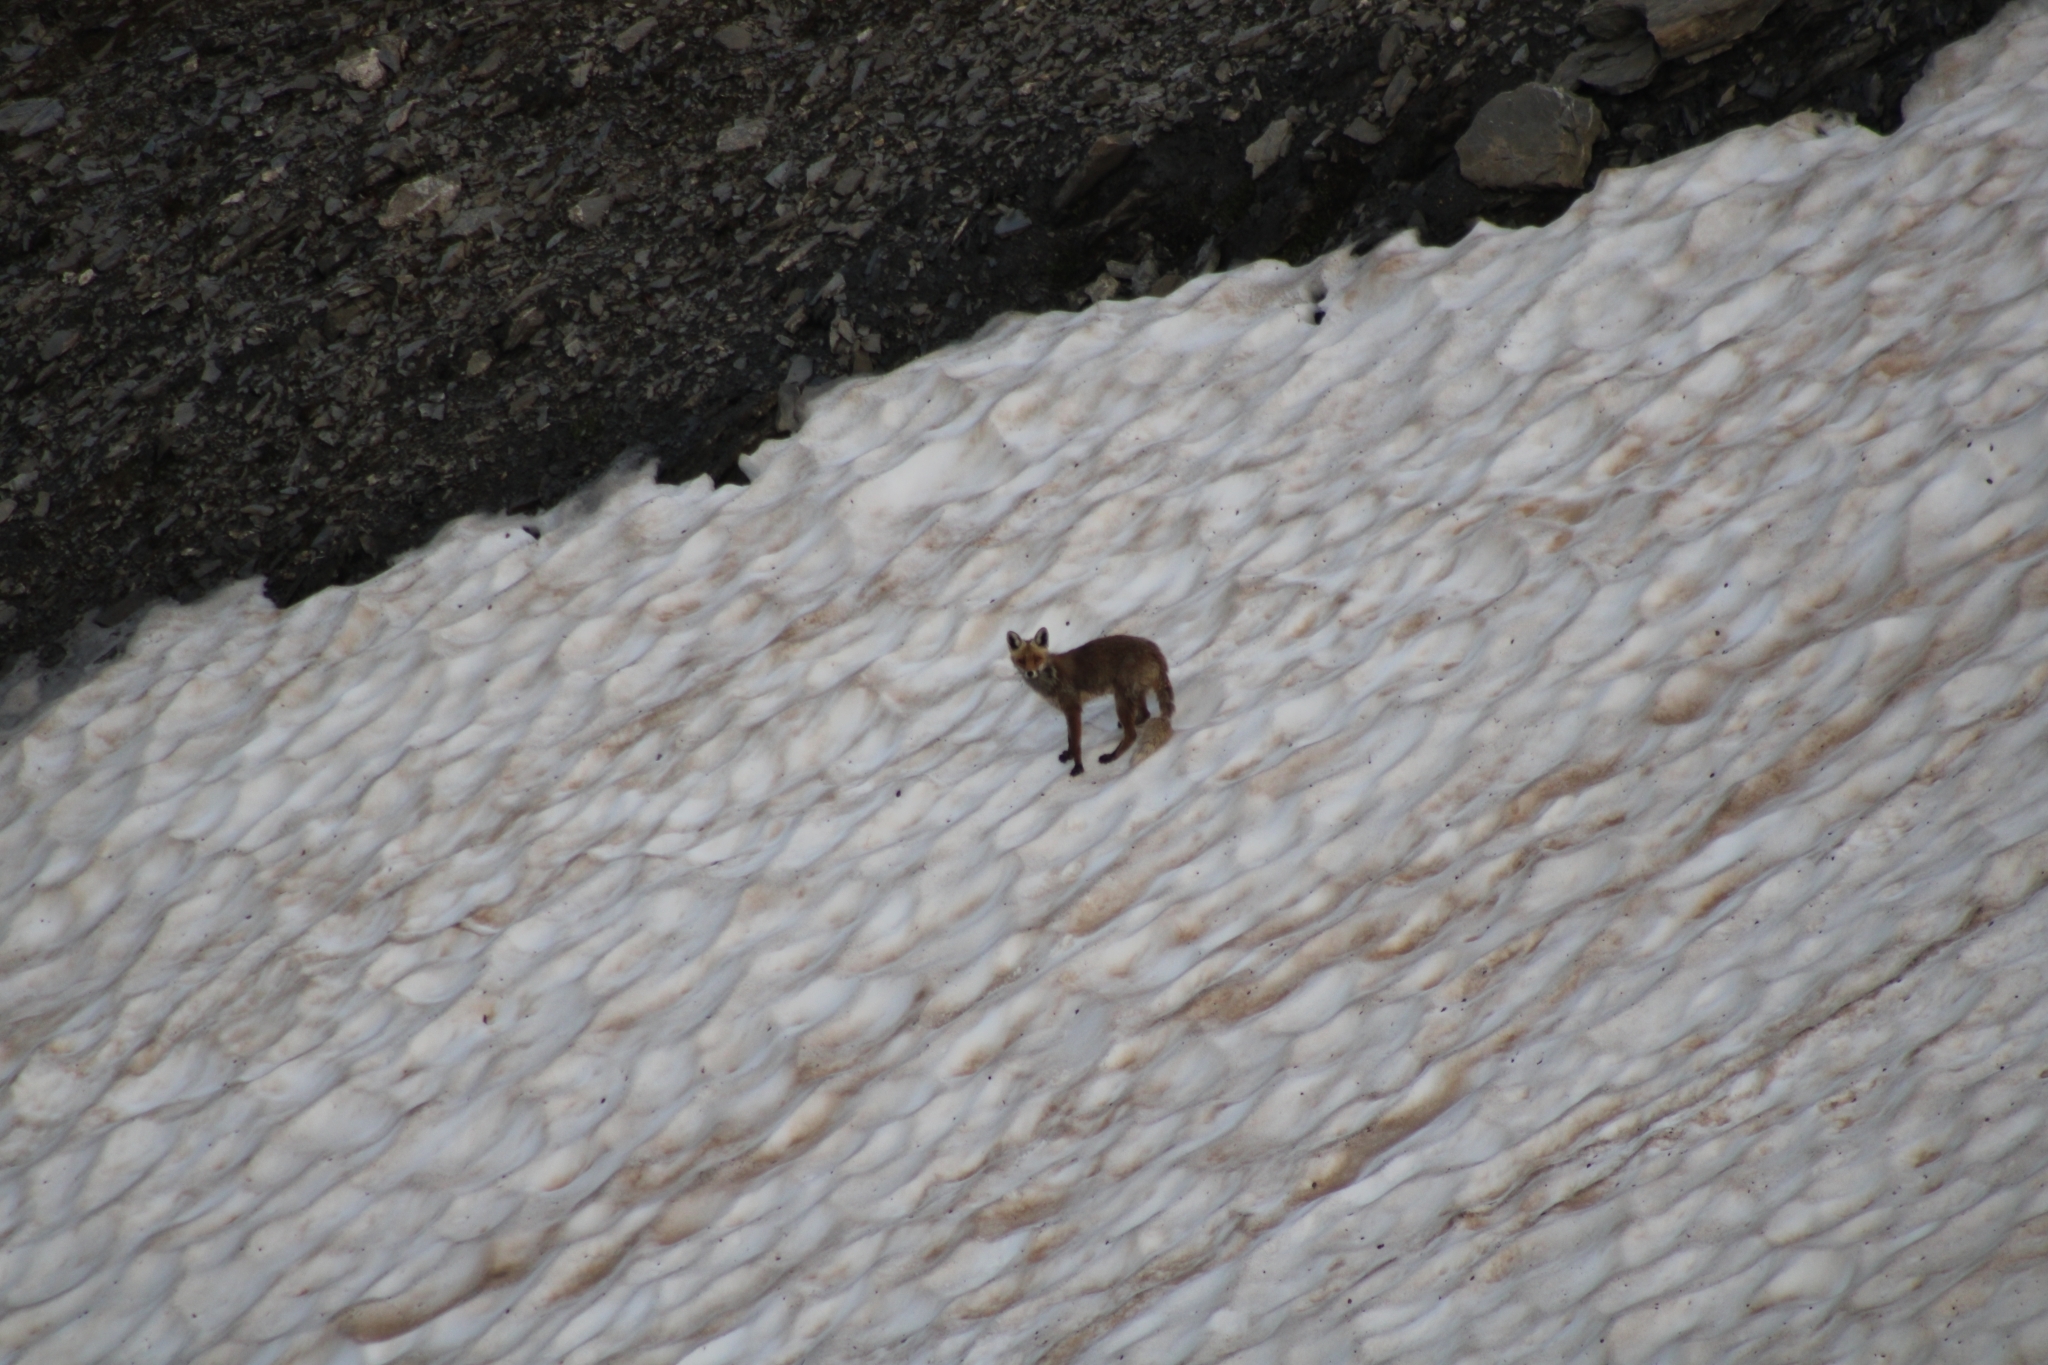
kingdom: Animalia
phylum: Chordata
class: Mammalia
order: Carnivora
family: Canidae
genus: Vulpes
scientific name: Vulpes vulpes
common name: Red fox
